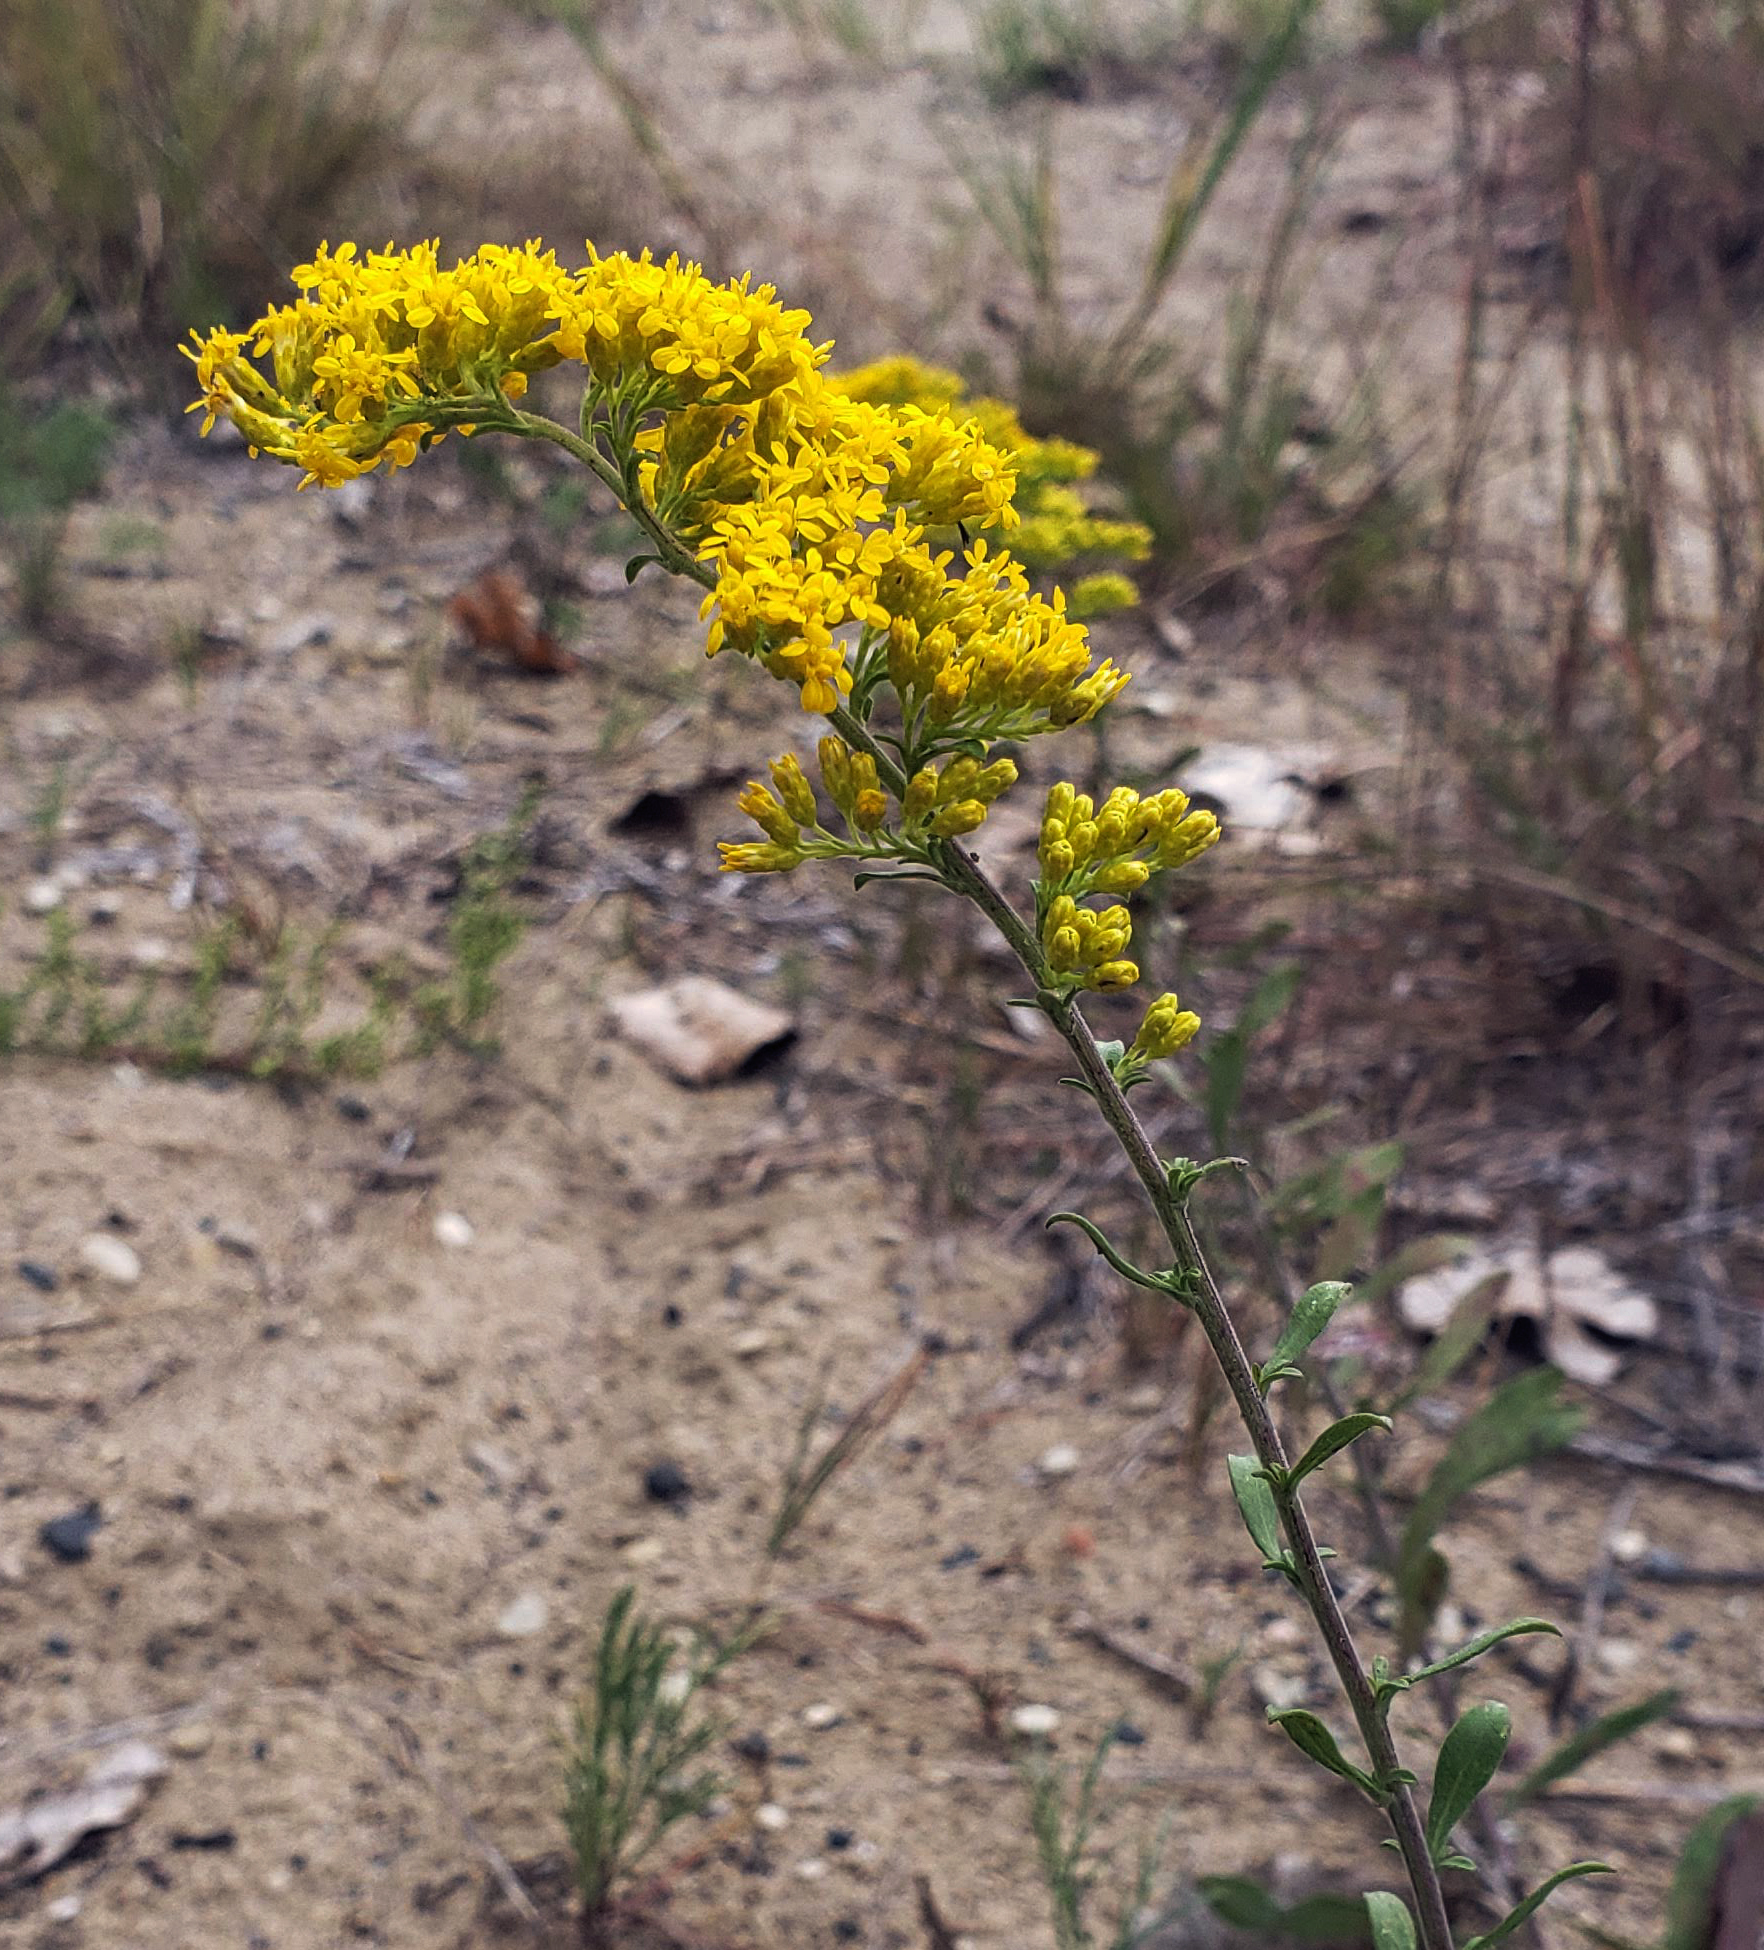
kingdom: Plantae
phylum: Tracheophyta
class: Magnoliopsida
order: Asterales
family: Asteraceae
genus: Solidago
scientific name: Solidago nemoralis
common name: Grey goldenrod
